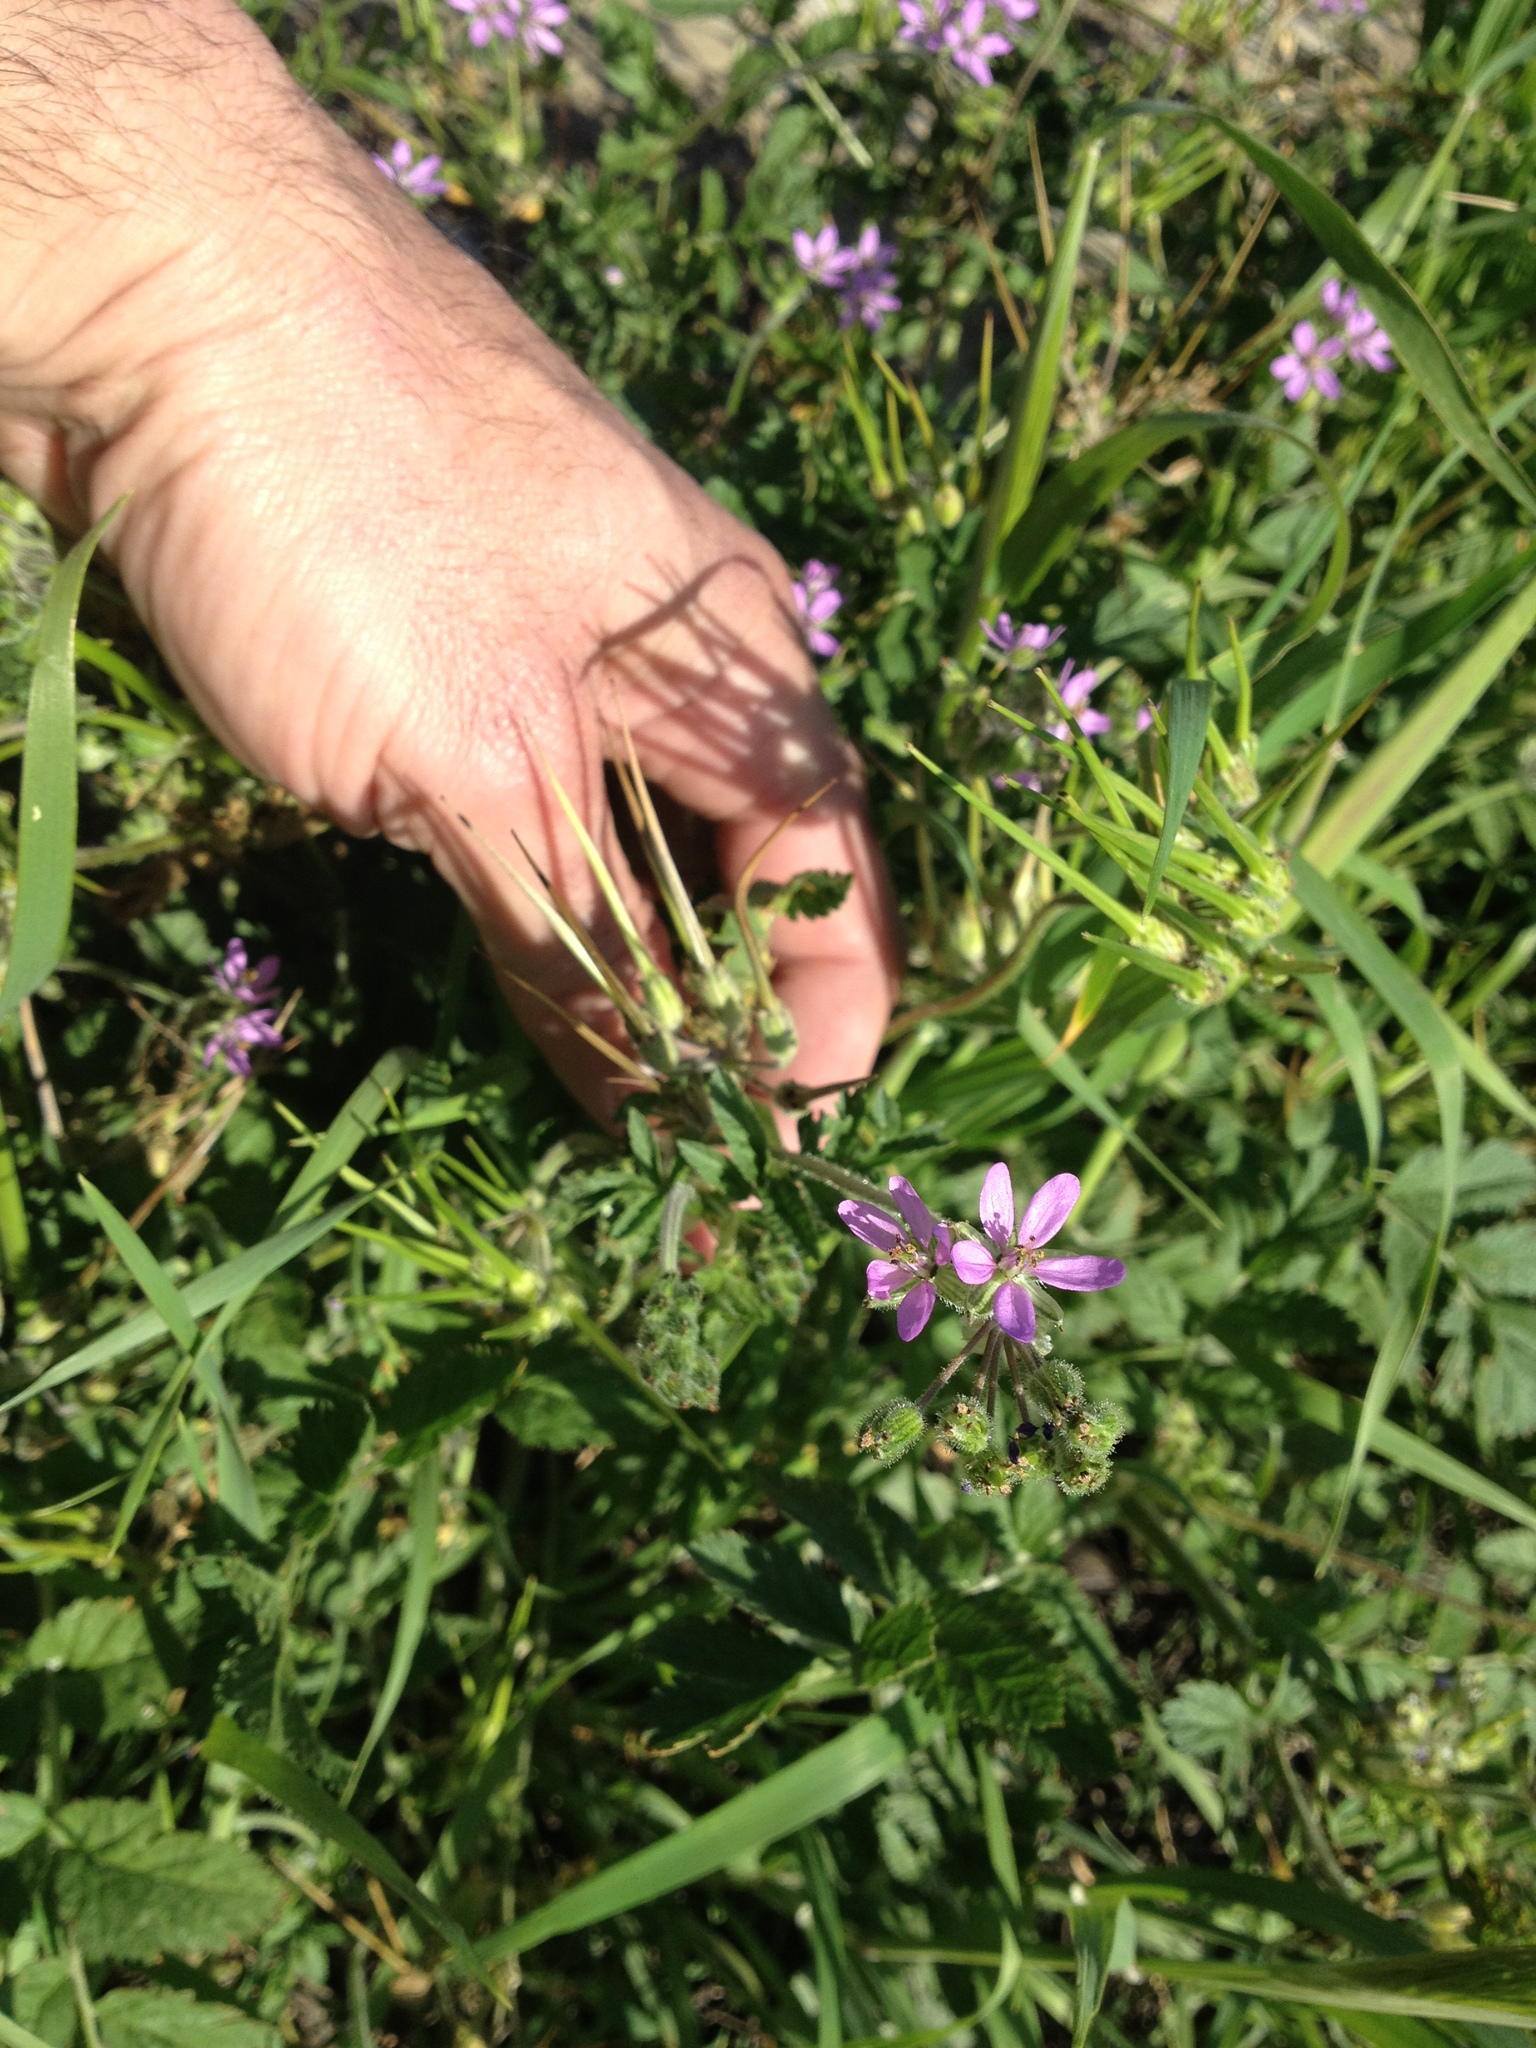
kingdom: Plantae
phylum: Tracheophyta
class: Magnoliopsida
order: Geraniales
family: Geraniaceae
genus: Erodium
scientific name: Erodium moschatum
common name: Musk stork's-bill
